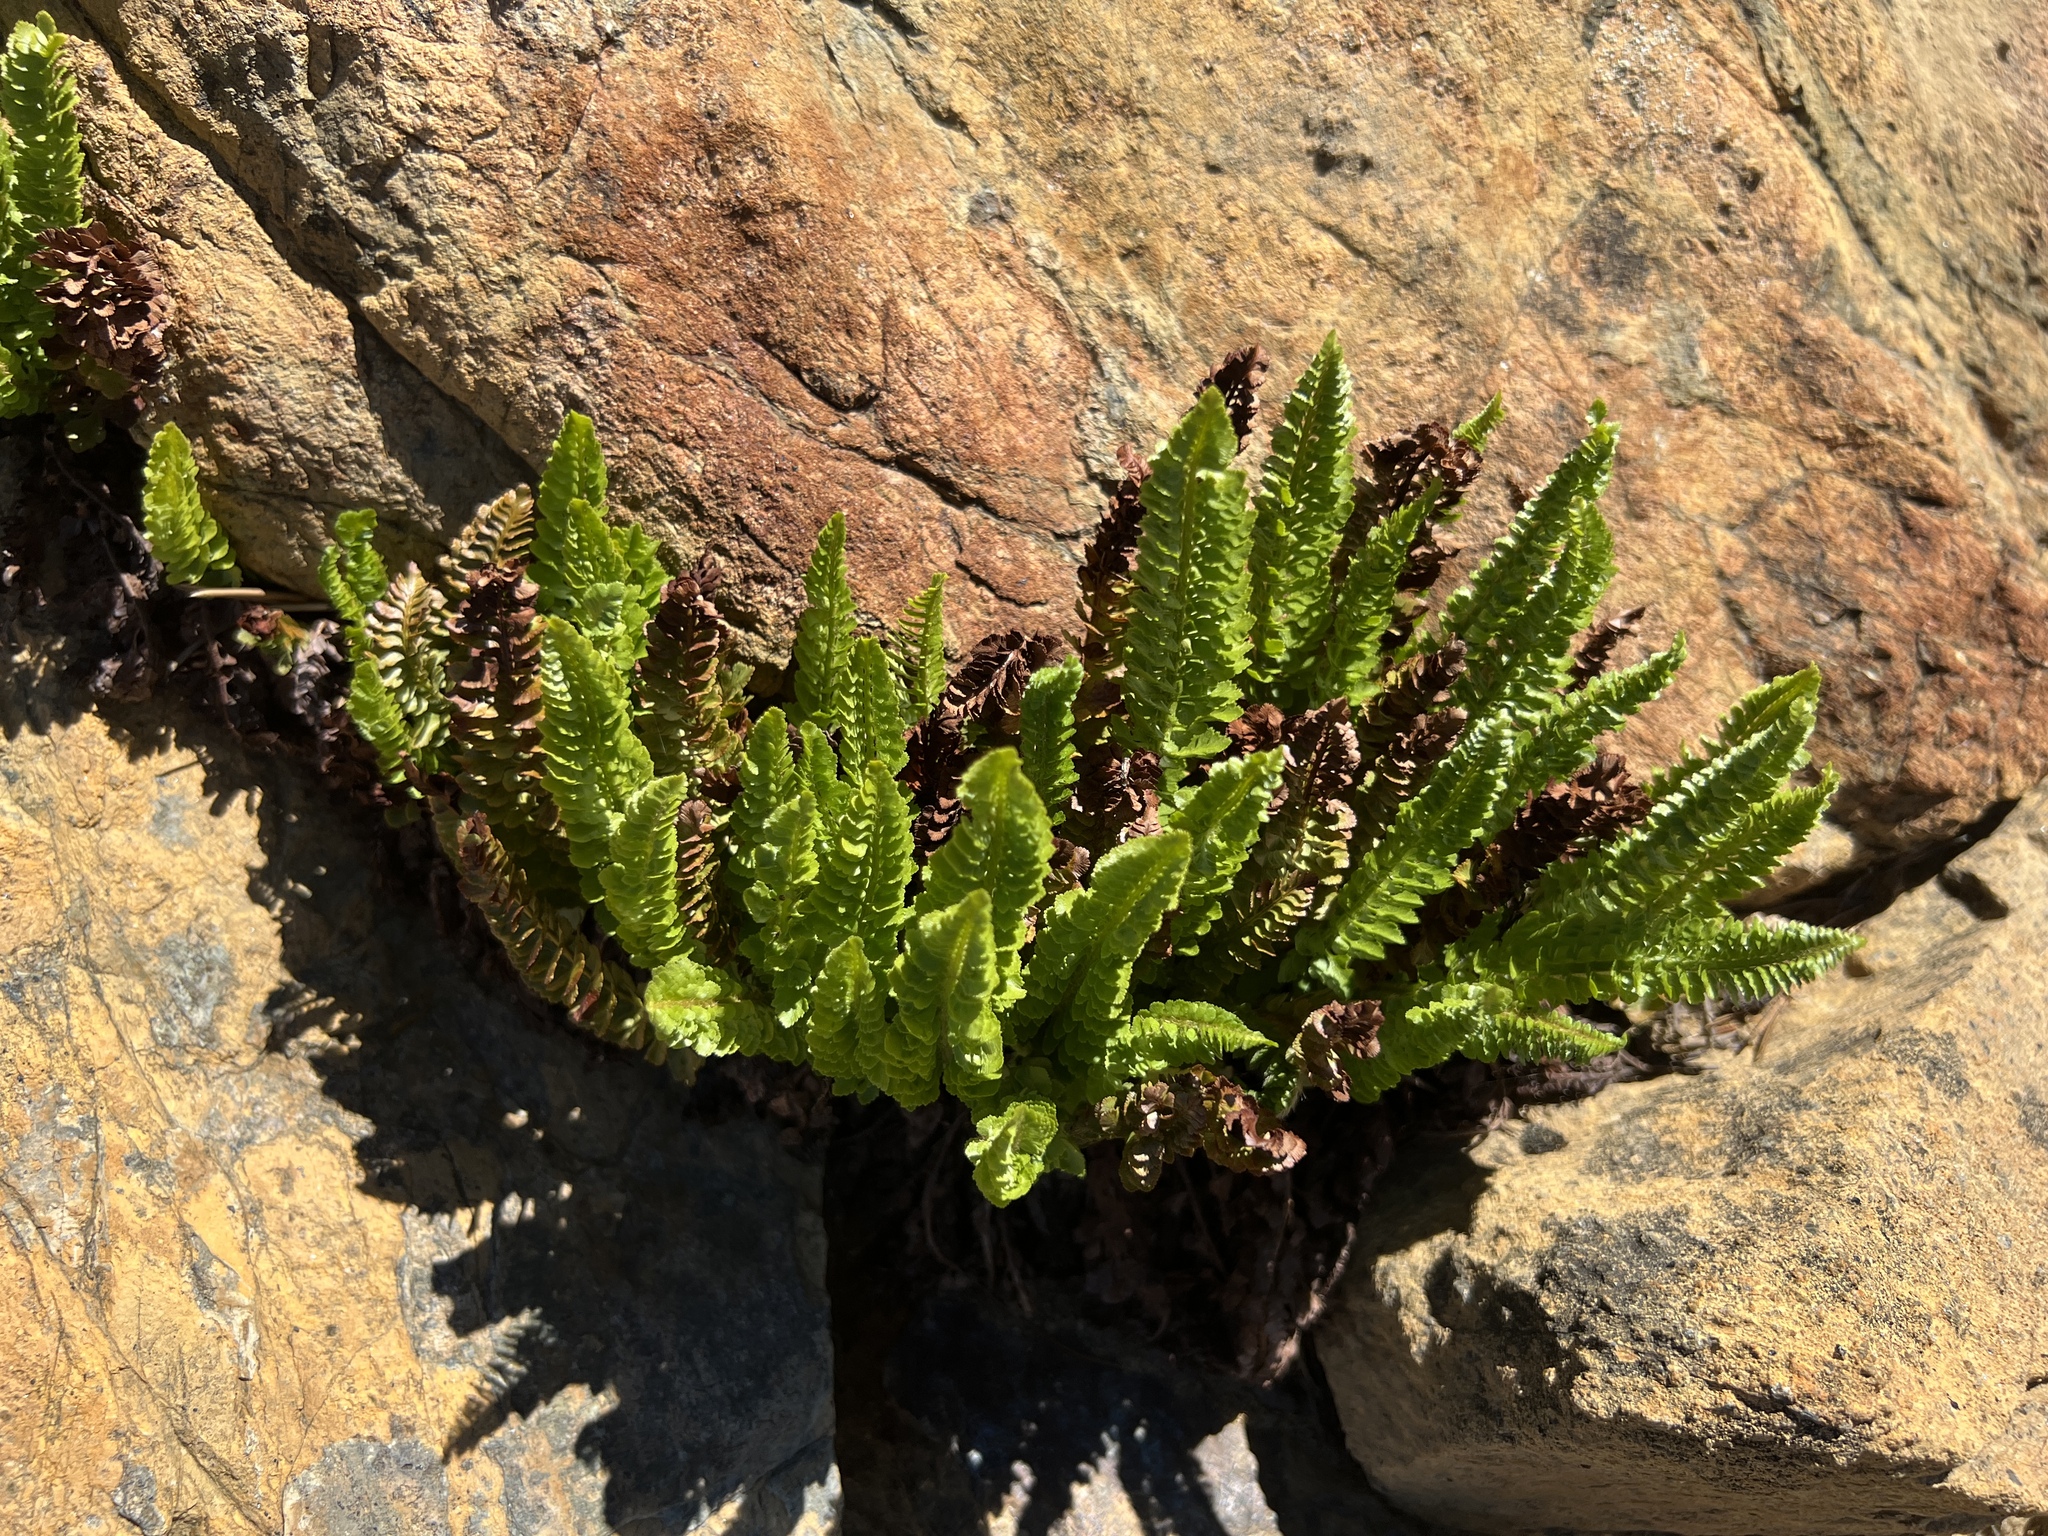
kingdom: Plantae
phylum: Tracheophyta
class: Polypodiopsida
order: Polypodiales
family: Dryopteridaceae
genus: Polystichum
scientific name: Polystichum lemmonii
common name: Lemmon's holly fern
